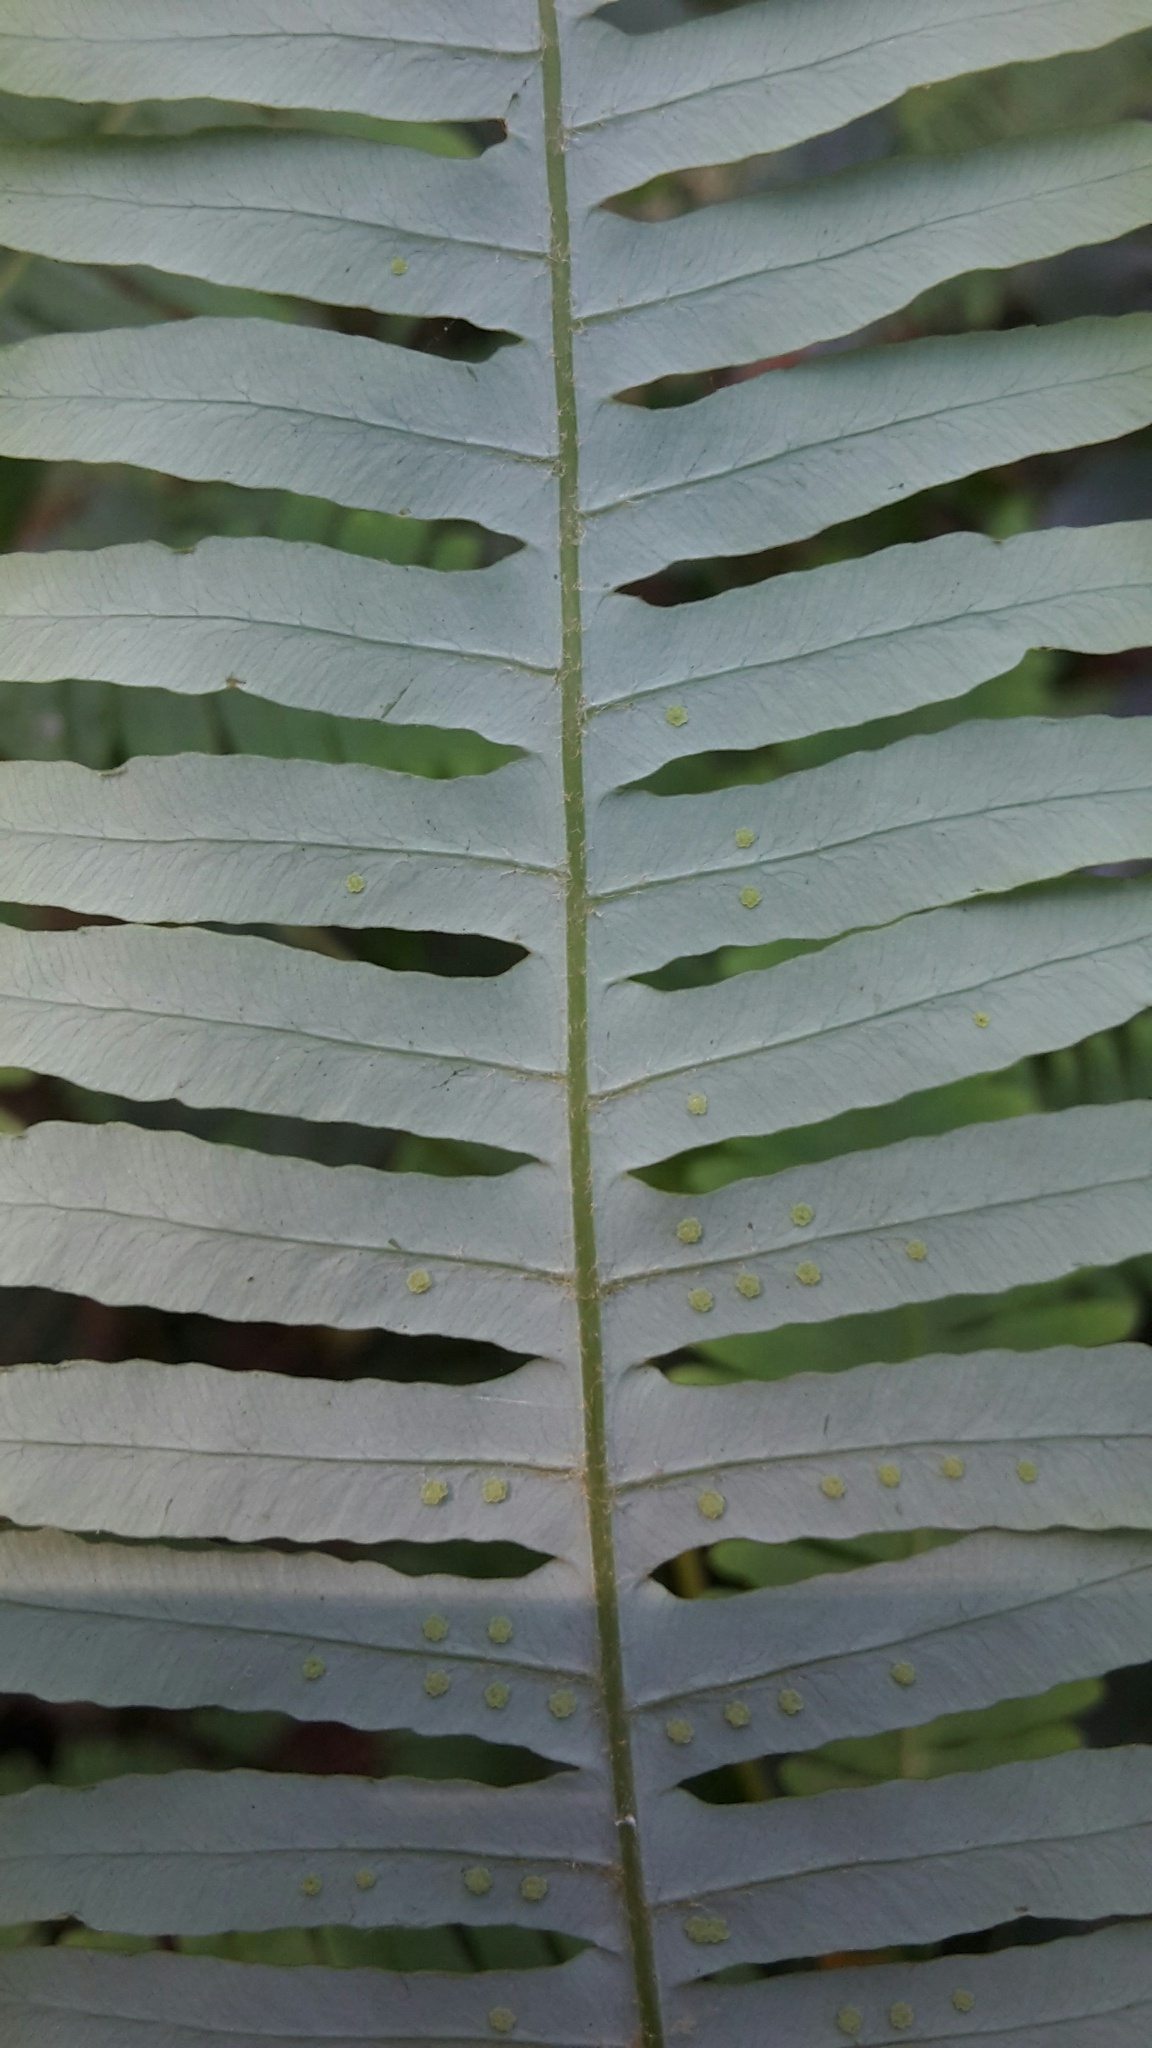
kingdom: Plantae
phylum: Tracheophyta
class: Polypodiopsida
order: Gleicheniales
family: Gleicheniaceae
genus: Dicranopteris
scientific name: Dicranopteris linearis
